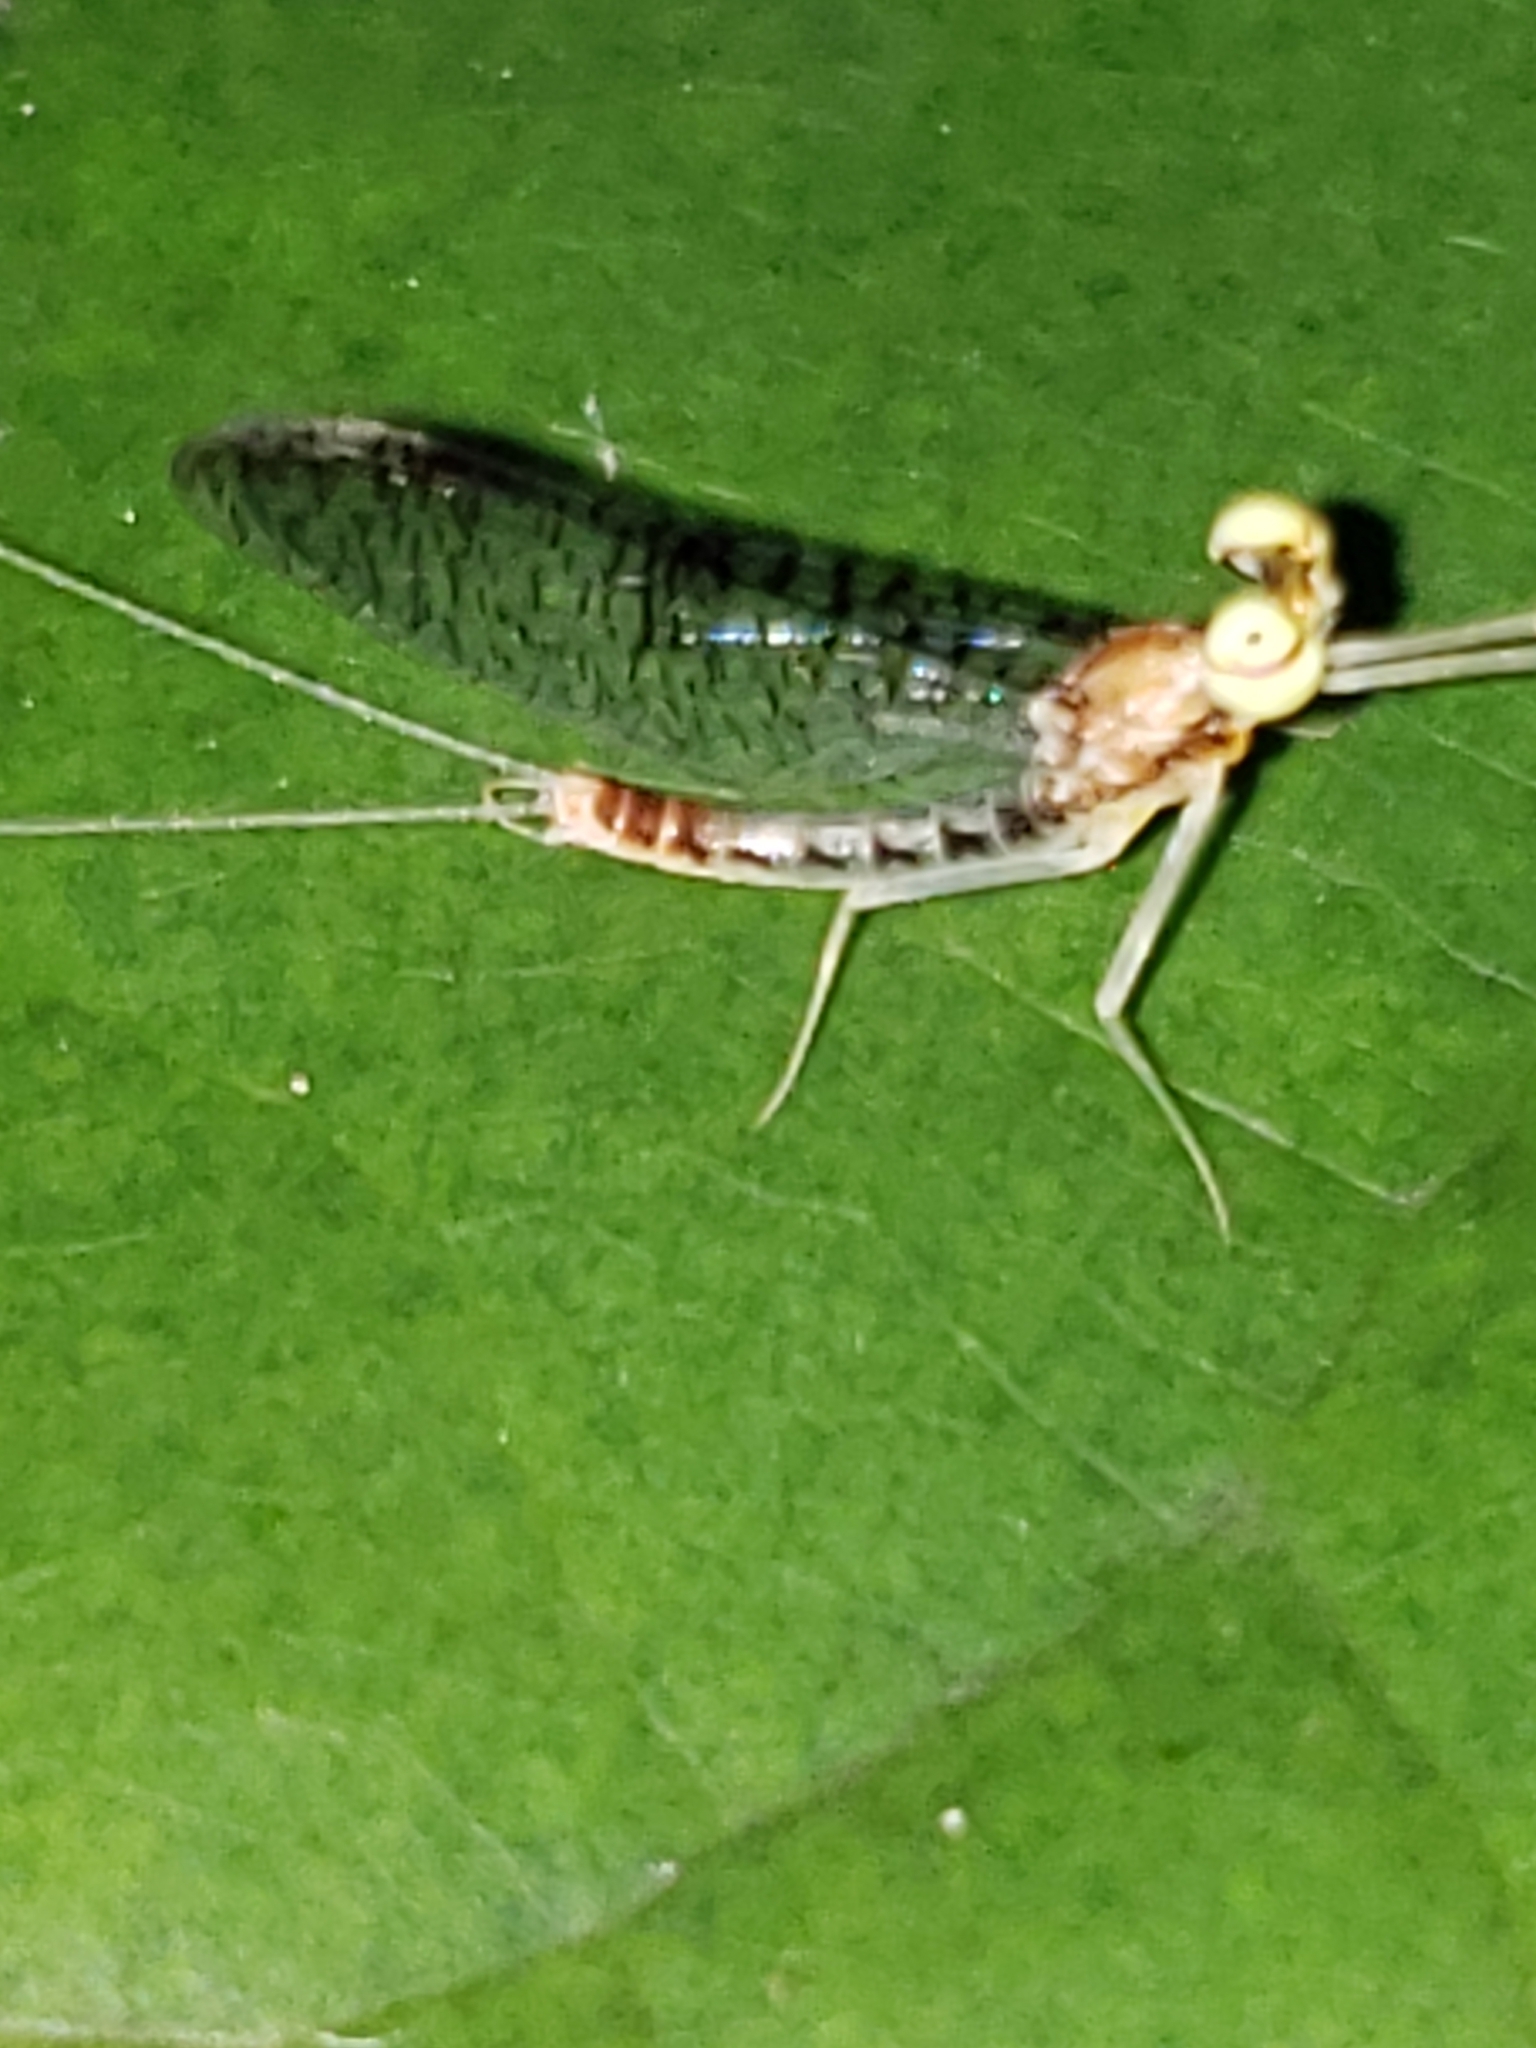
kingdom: Animalia
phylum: Arthropoda
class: Insecta
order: Ephemeroptera
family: Heptageniidae
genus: Leucrocuta
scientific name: Leucrocuta aphrodite
